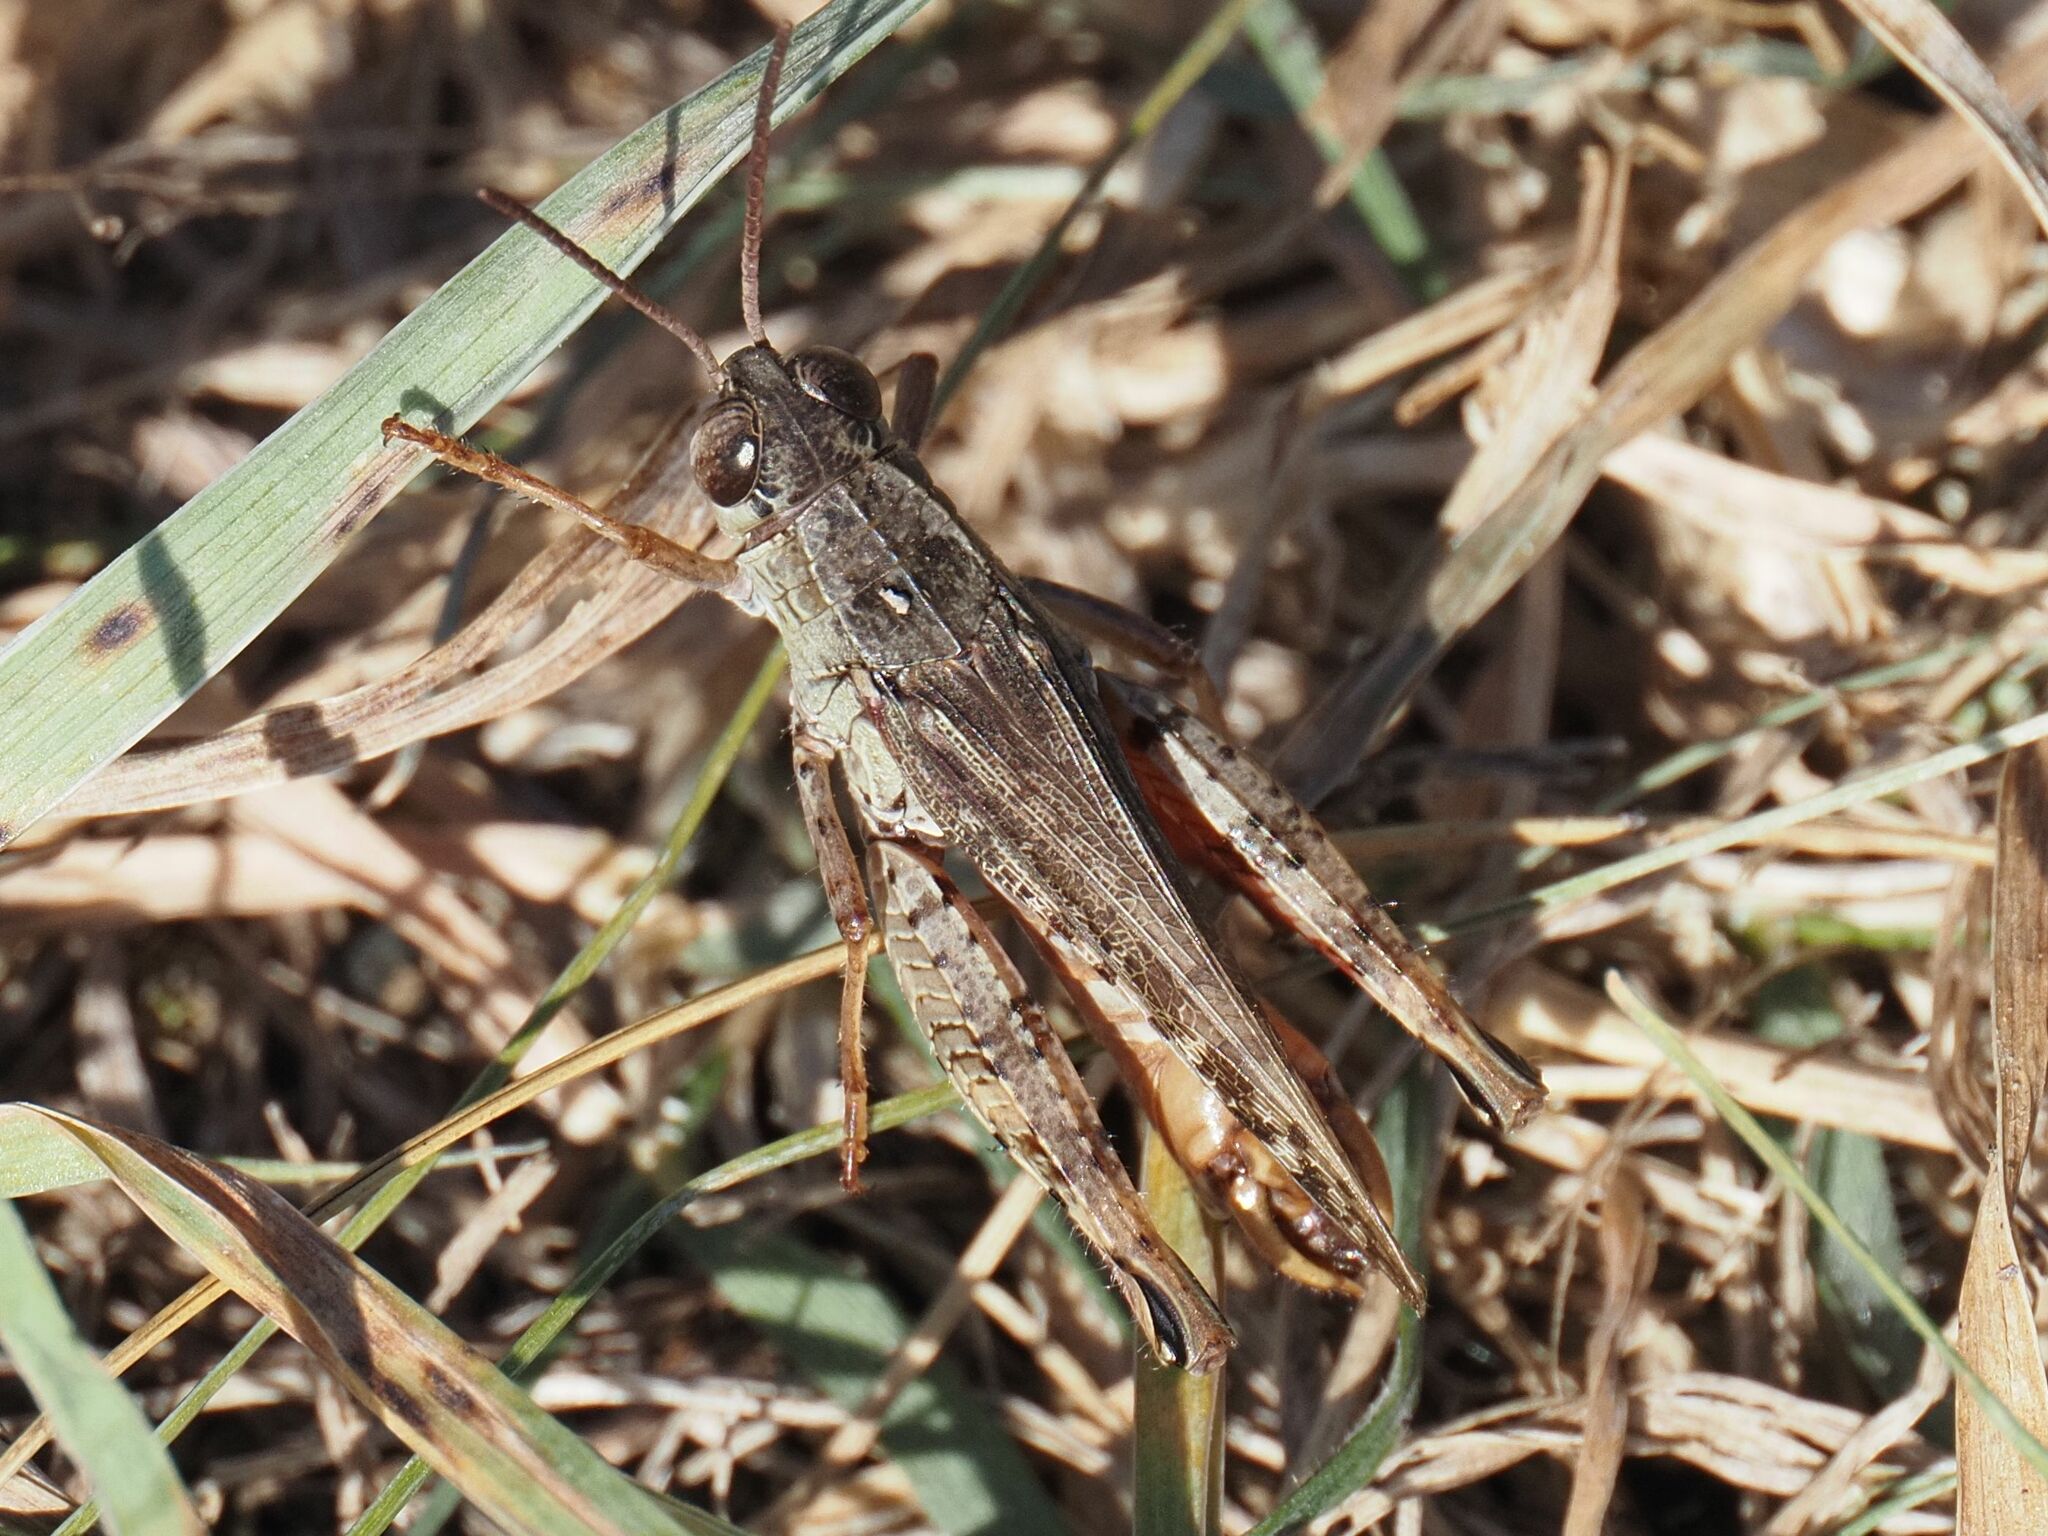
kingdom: Animalia
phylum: Arthropoda
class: Insecta
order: Orthoptera
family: Acrididae
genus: Calliptamus
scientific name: Calliptamus italicus
